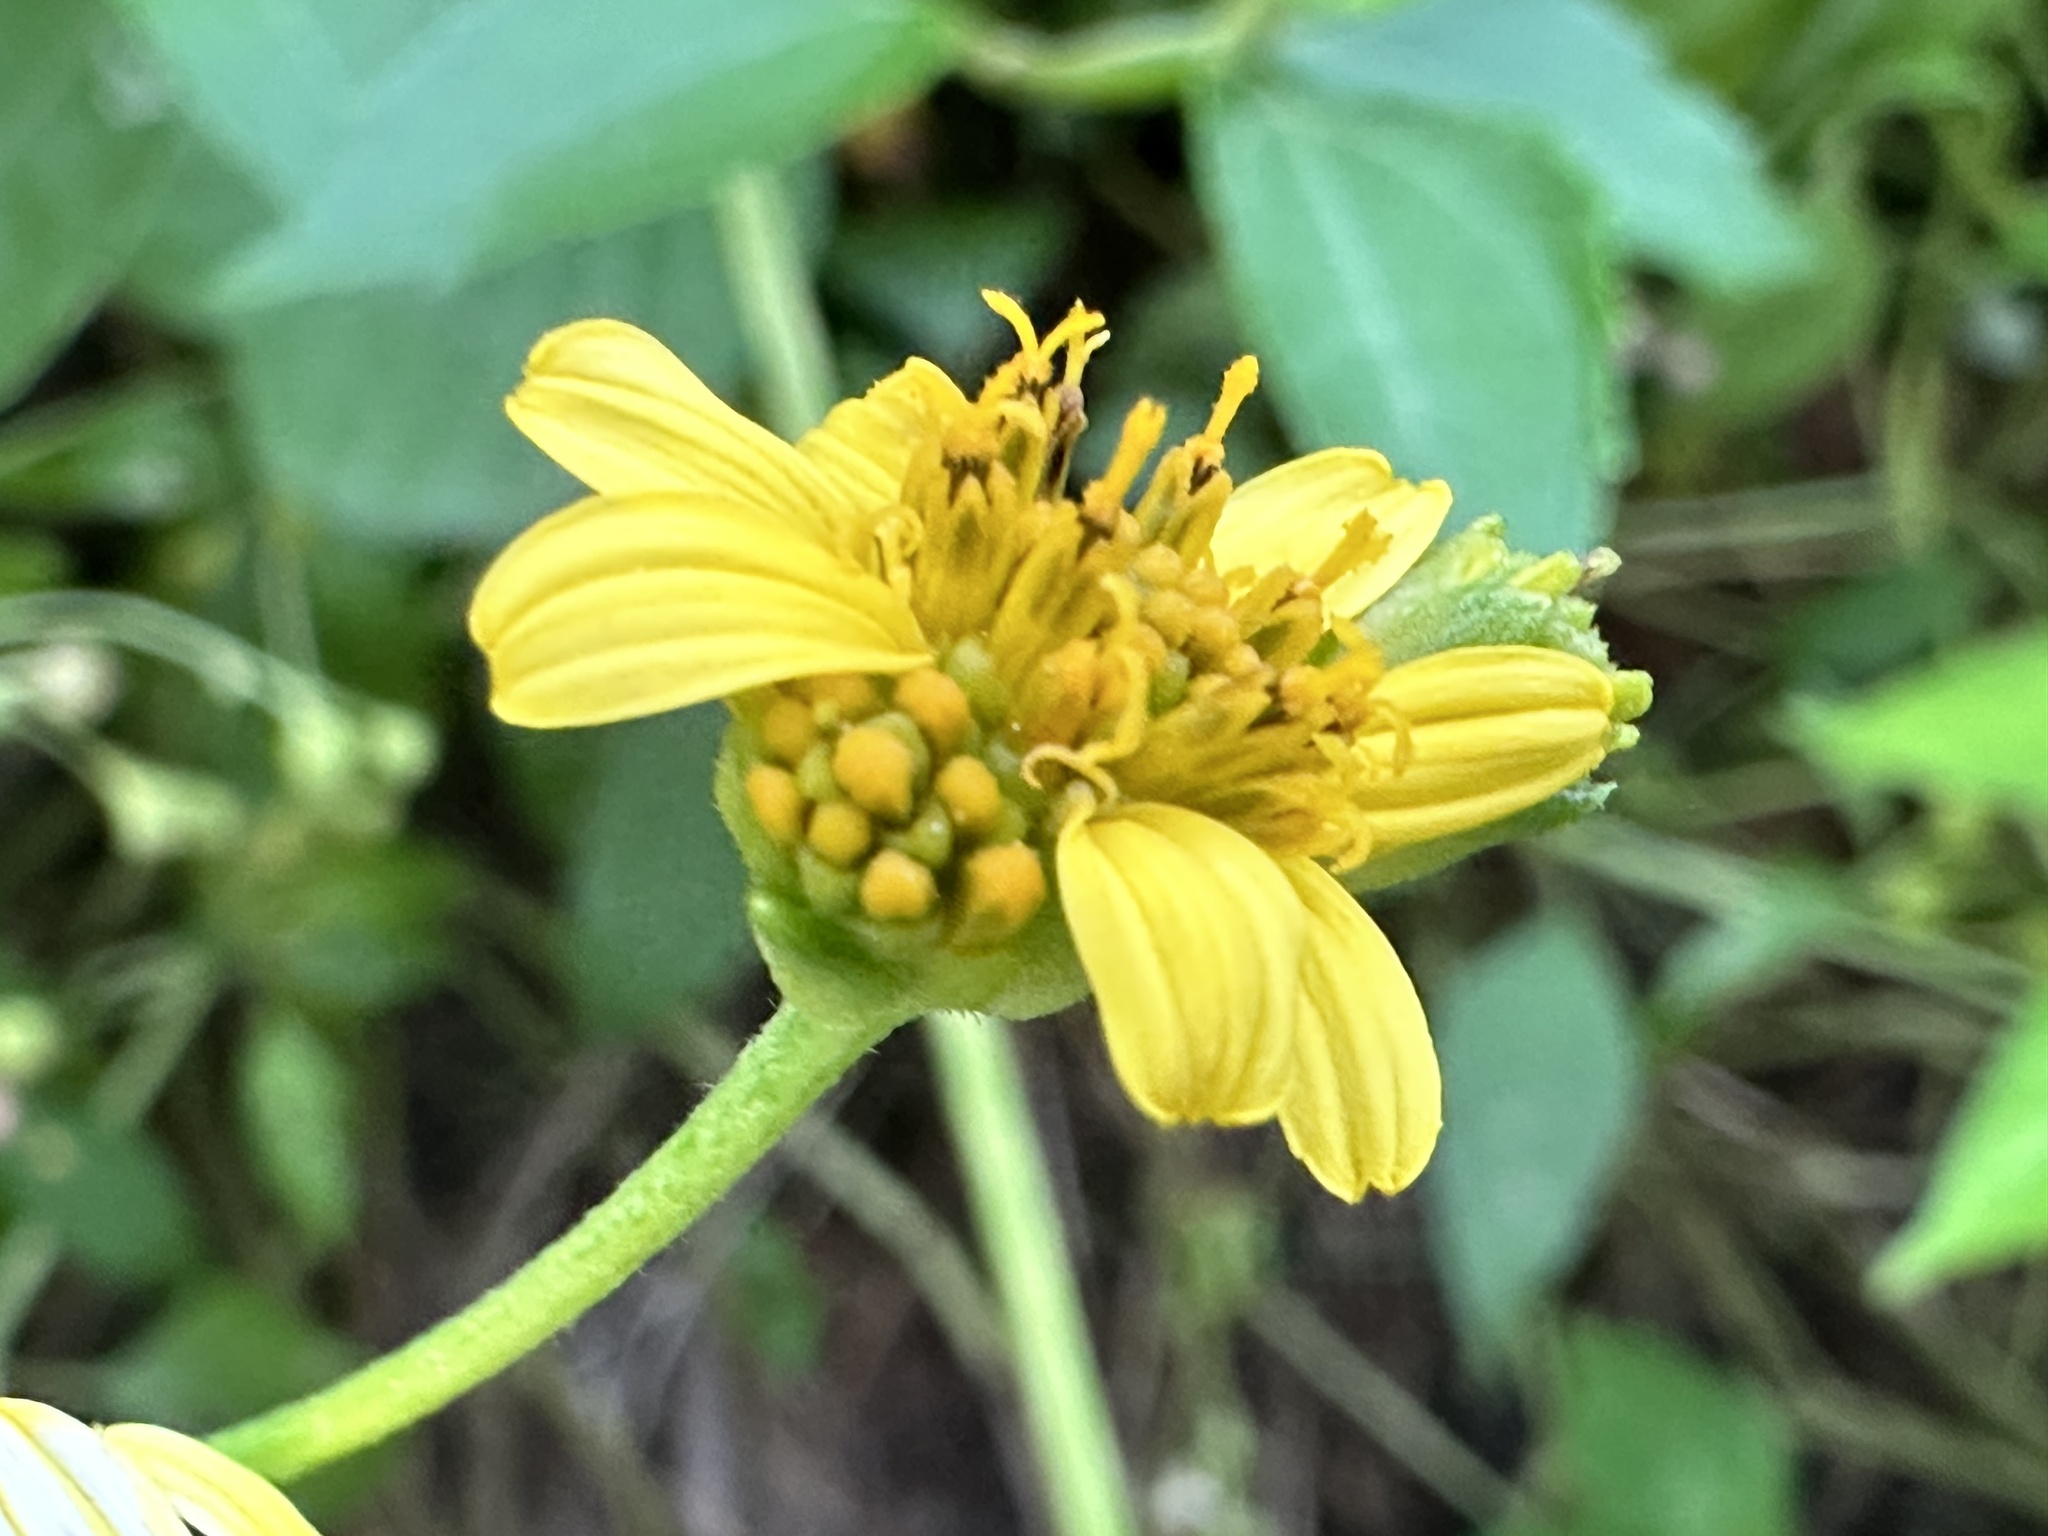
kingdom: Plantae
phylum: Tracheophyta
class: Magnoliopsida
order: Asterales
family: Asteraceae
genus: Wollastonia
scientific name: Wollastonia biflora
